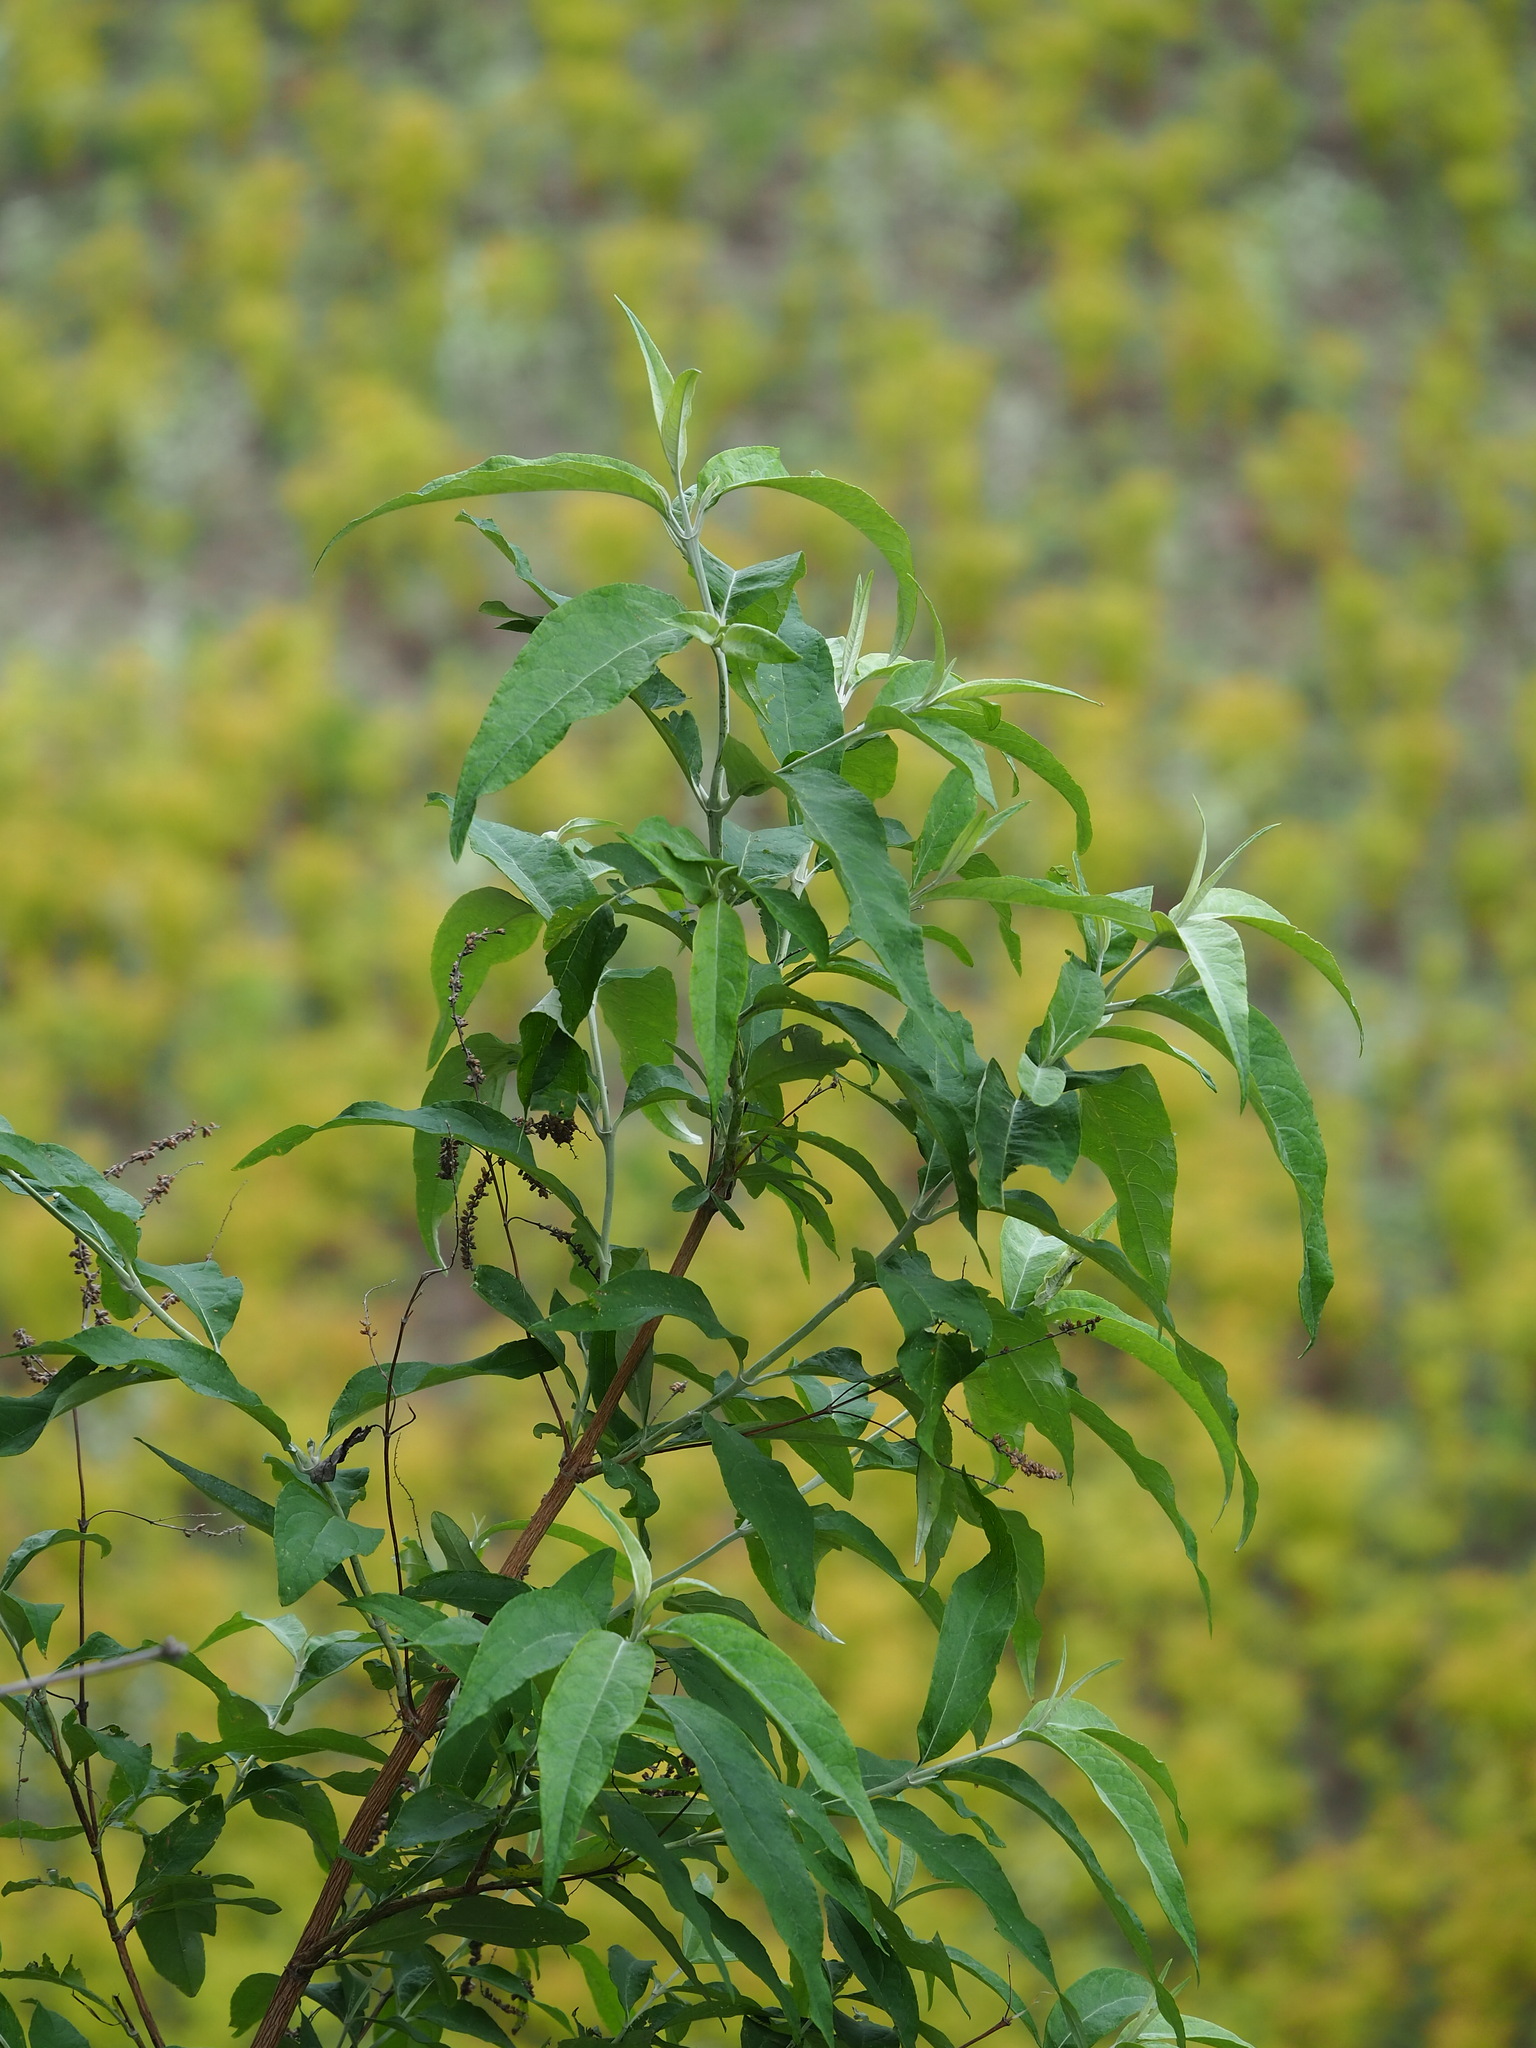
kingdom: Plantae
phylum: Tracheophyta
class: Magnoliopsida
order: Lamiales
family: Scrophulariaceae
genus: Buddleja
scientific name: Buddleja asiatica
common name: Dog tail
